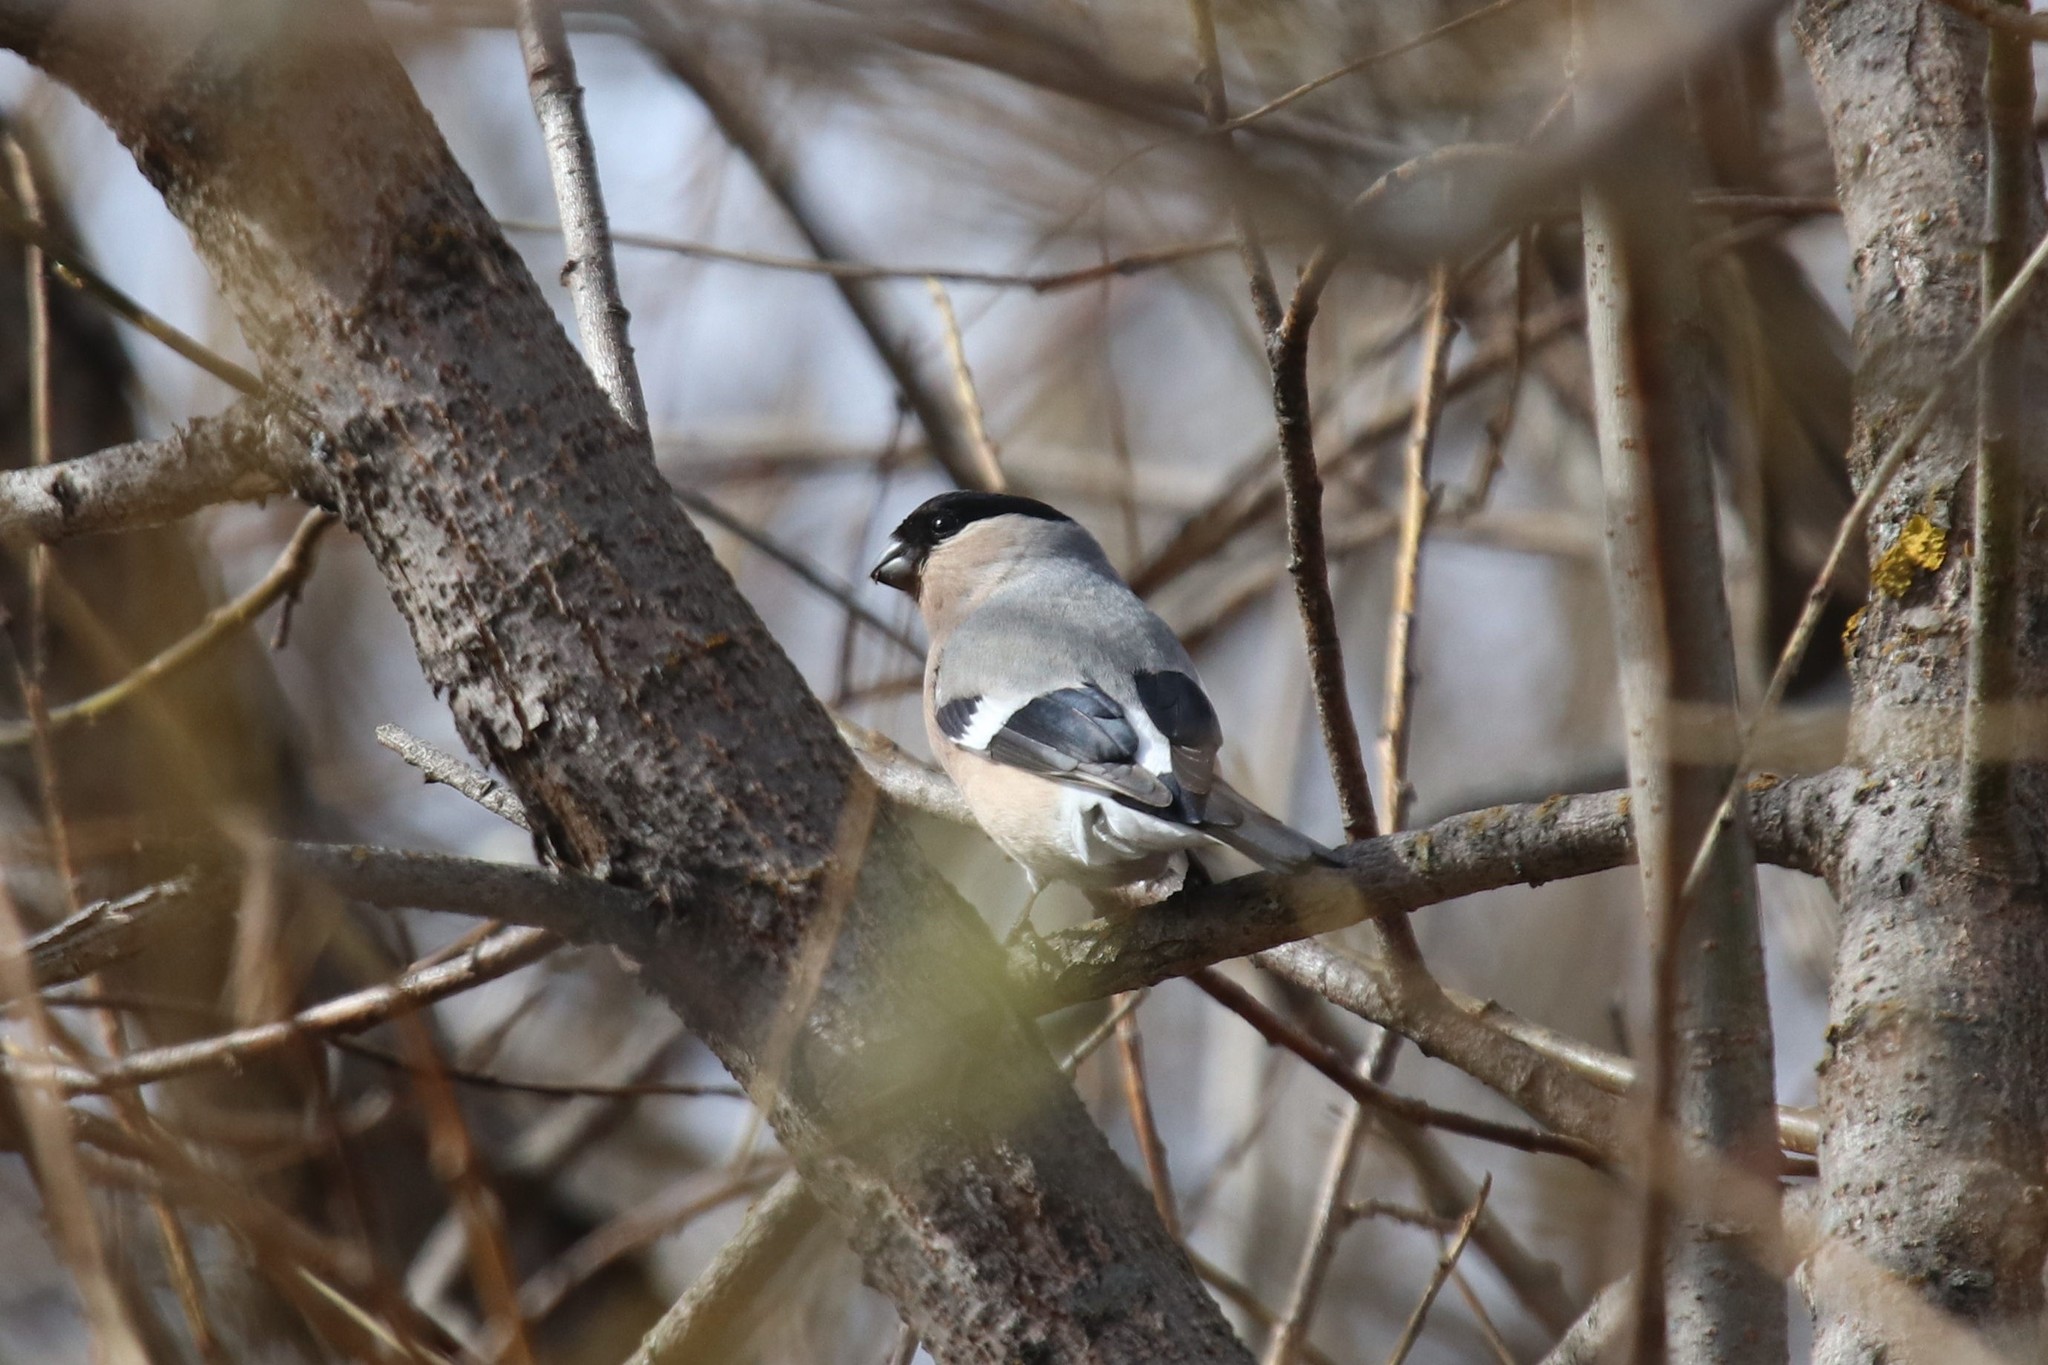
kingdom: Animalia
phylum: Chordata
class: Aves
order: Passeriformes
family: Fringillidae
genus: Pyrrhula
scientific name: Pyrrhula pyrrhula
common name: Eurasian bullfinch
